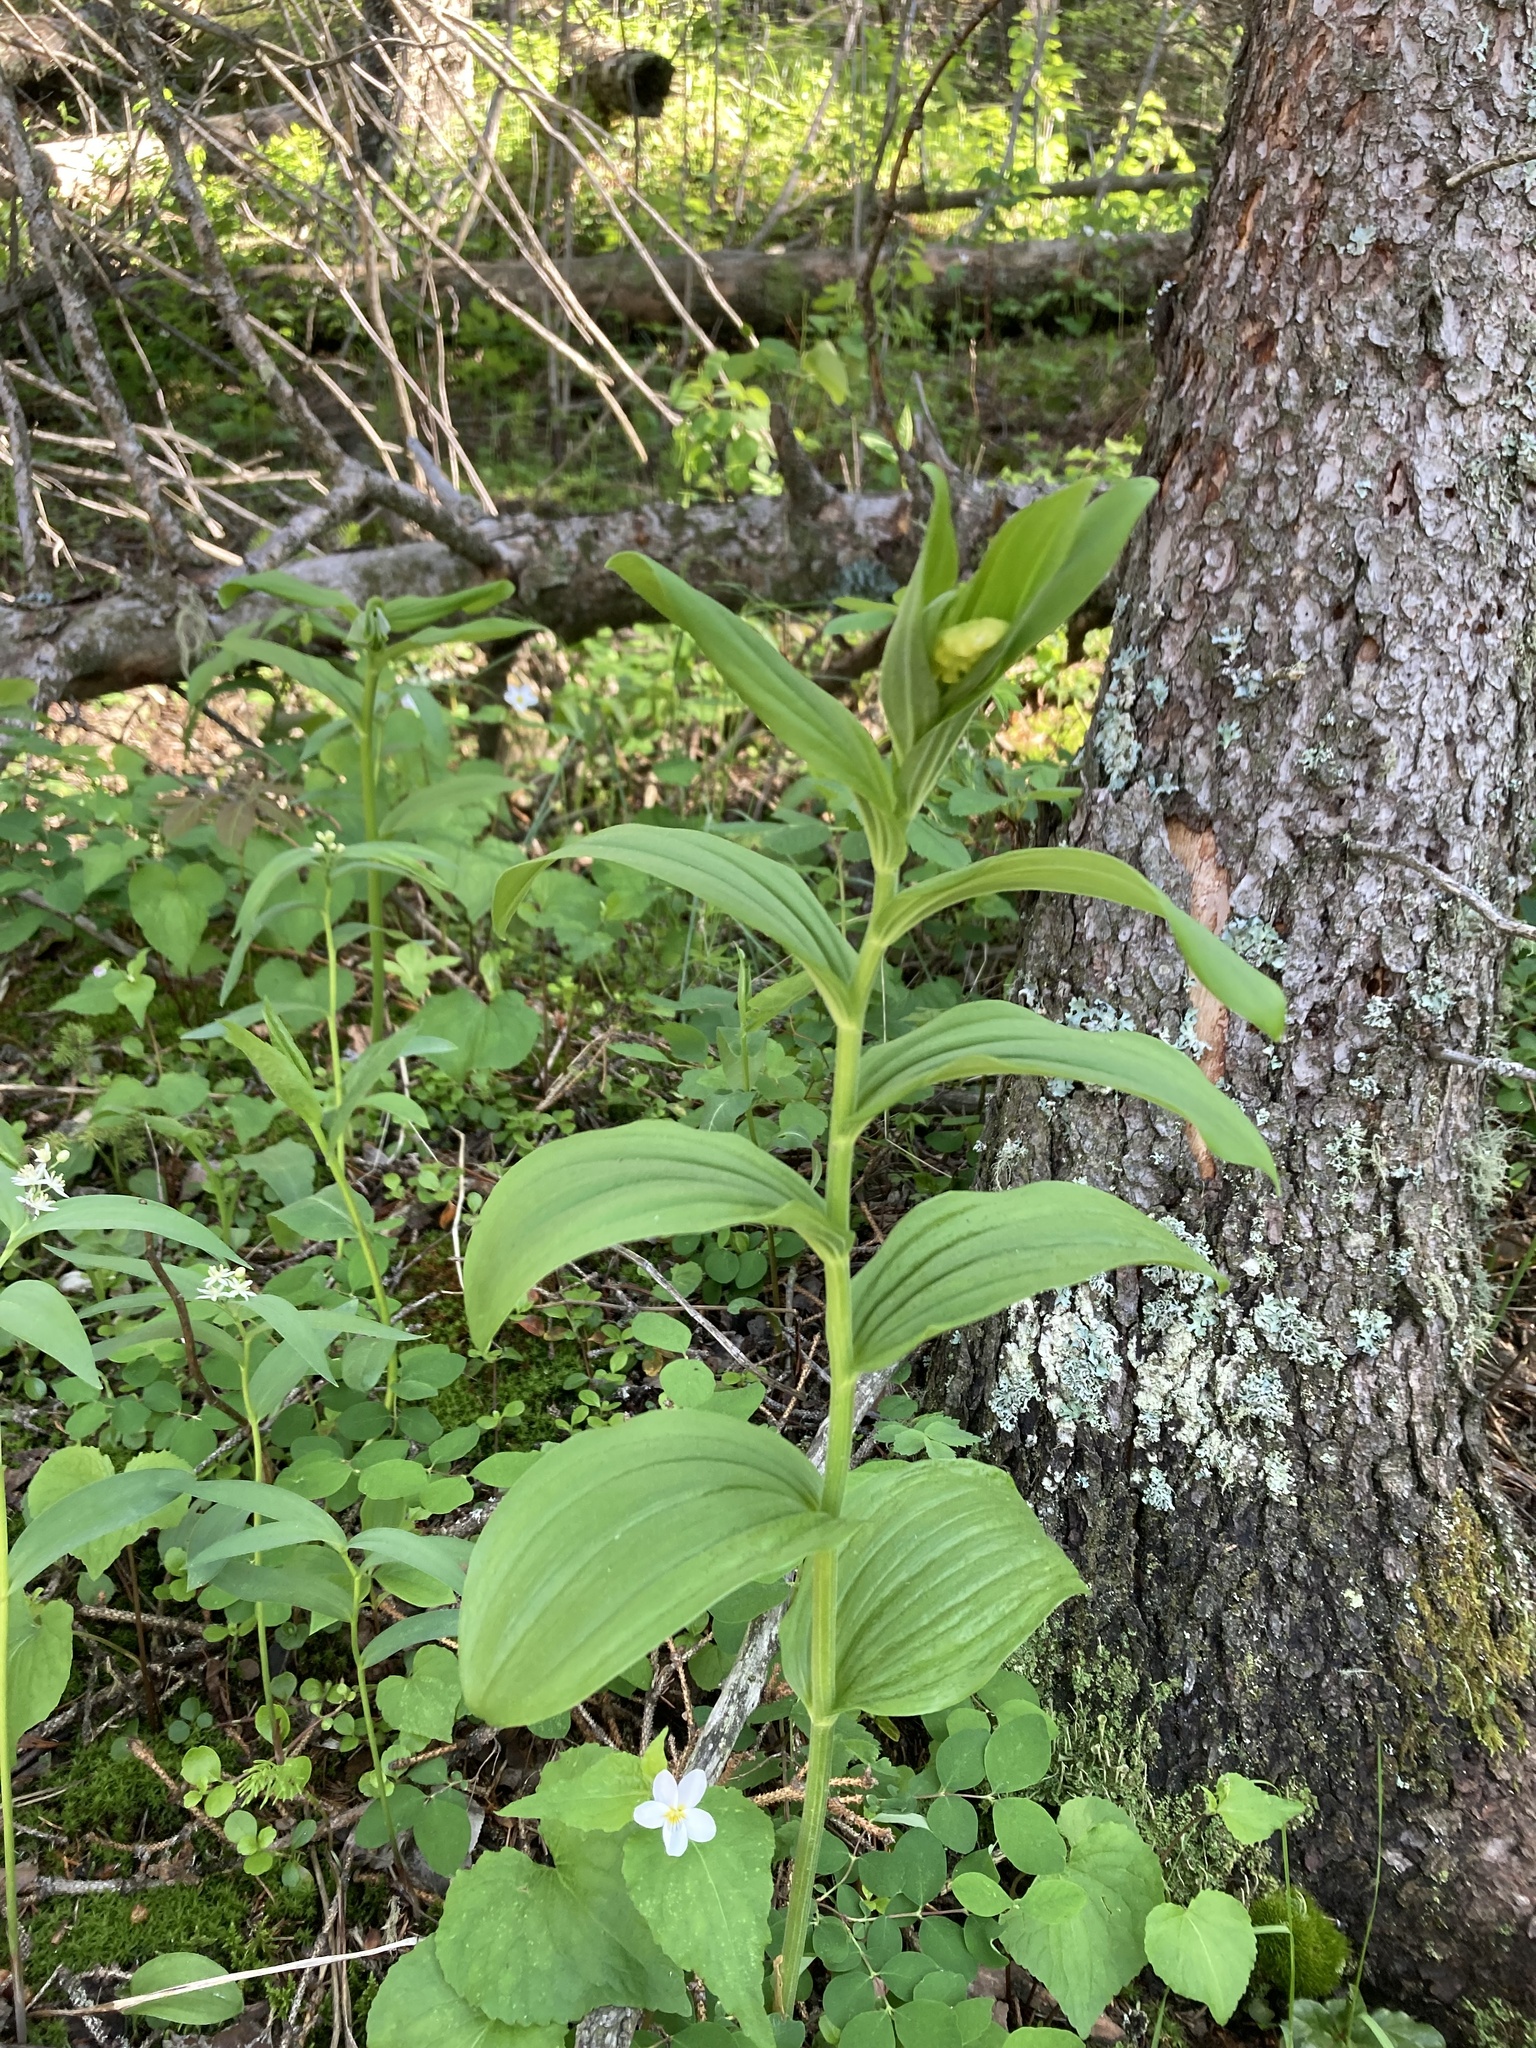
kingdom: Plantae
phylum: Tracheophyta
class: Liliopsida
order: Asparagales
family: Asparagaceae
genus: Maianthemum
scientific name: Maianthemum racemosum
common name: False spikenard
